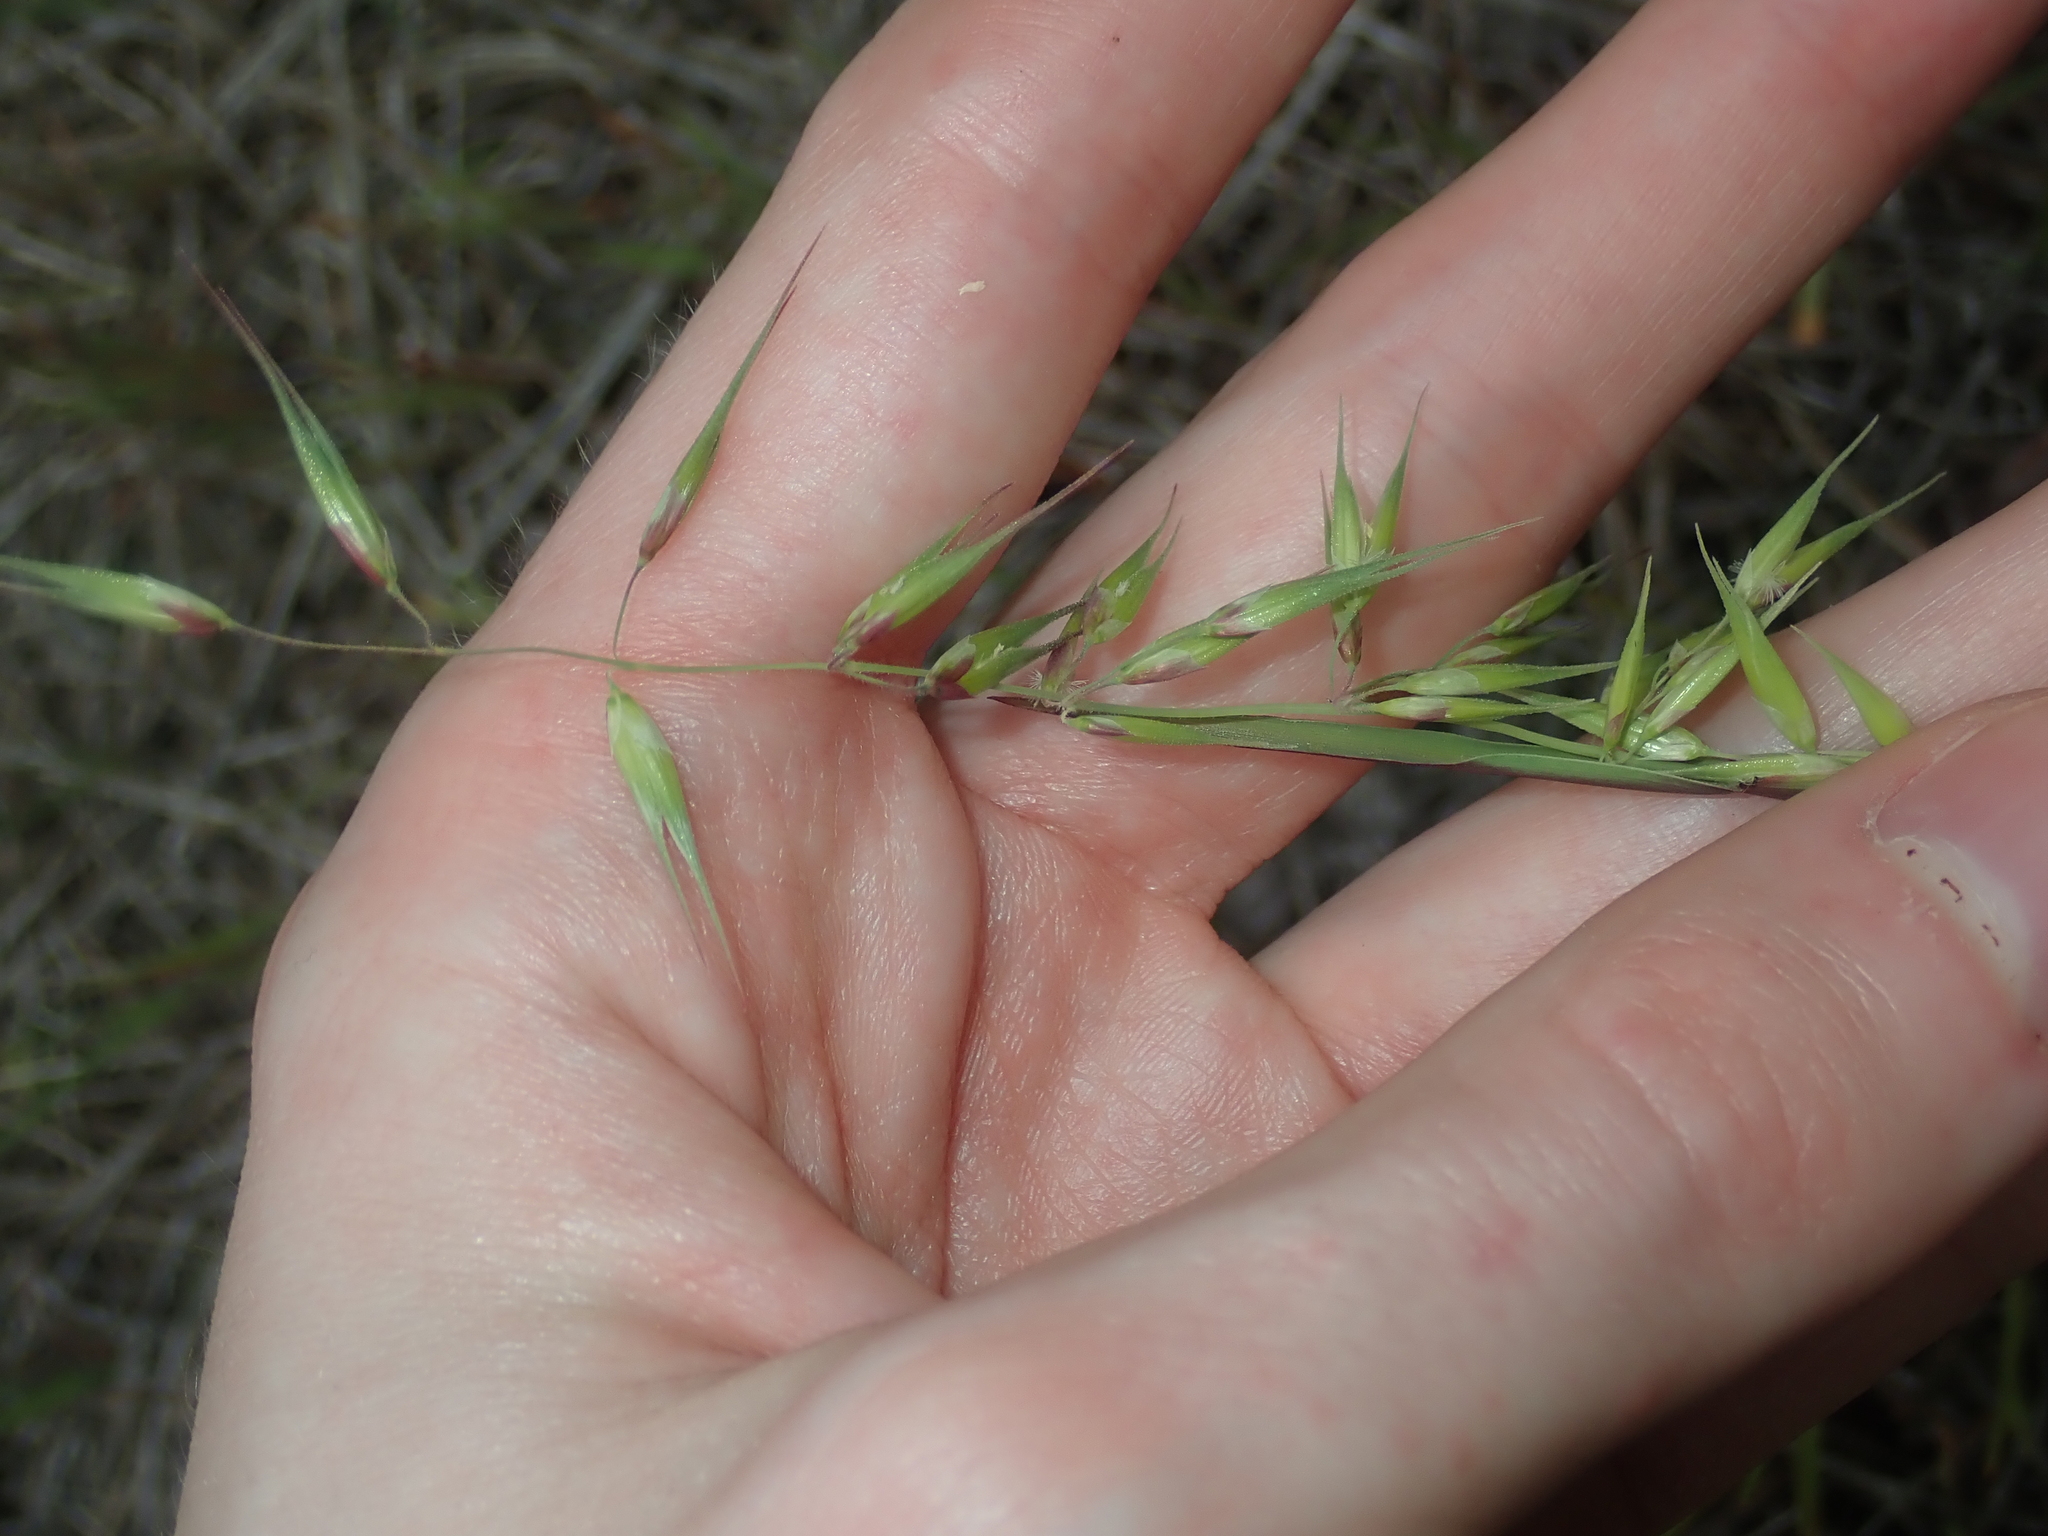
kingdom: Plantae
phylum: Tracheophyta
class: Liliopsida
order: Poales
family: Poaceae
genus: Ehrharta
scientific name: Ehrharta longiflora
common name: Longflowered veldtgrass
